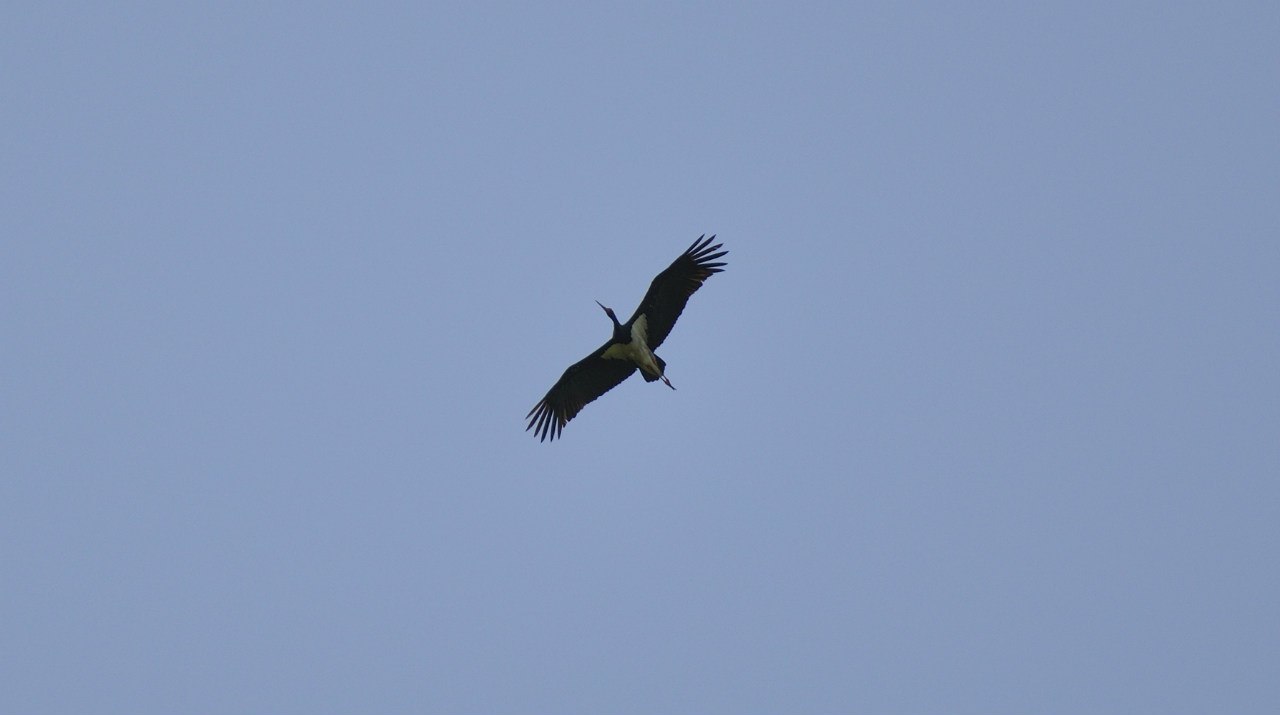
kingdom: Animalia
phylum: Chordata
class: Aves
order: Ciconiiformes
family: Ciconiidae
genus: Ciconia
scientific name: Ciconia nigra
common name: Black stork
